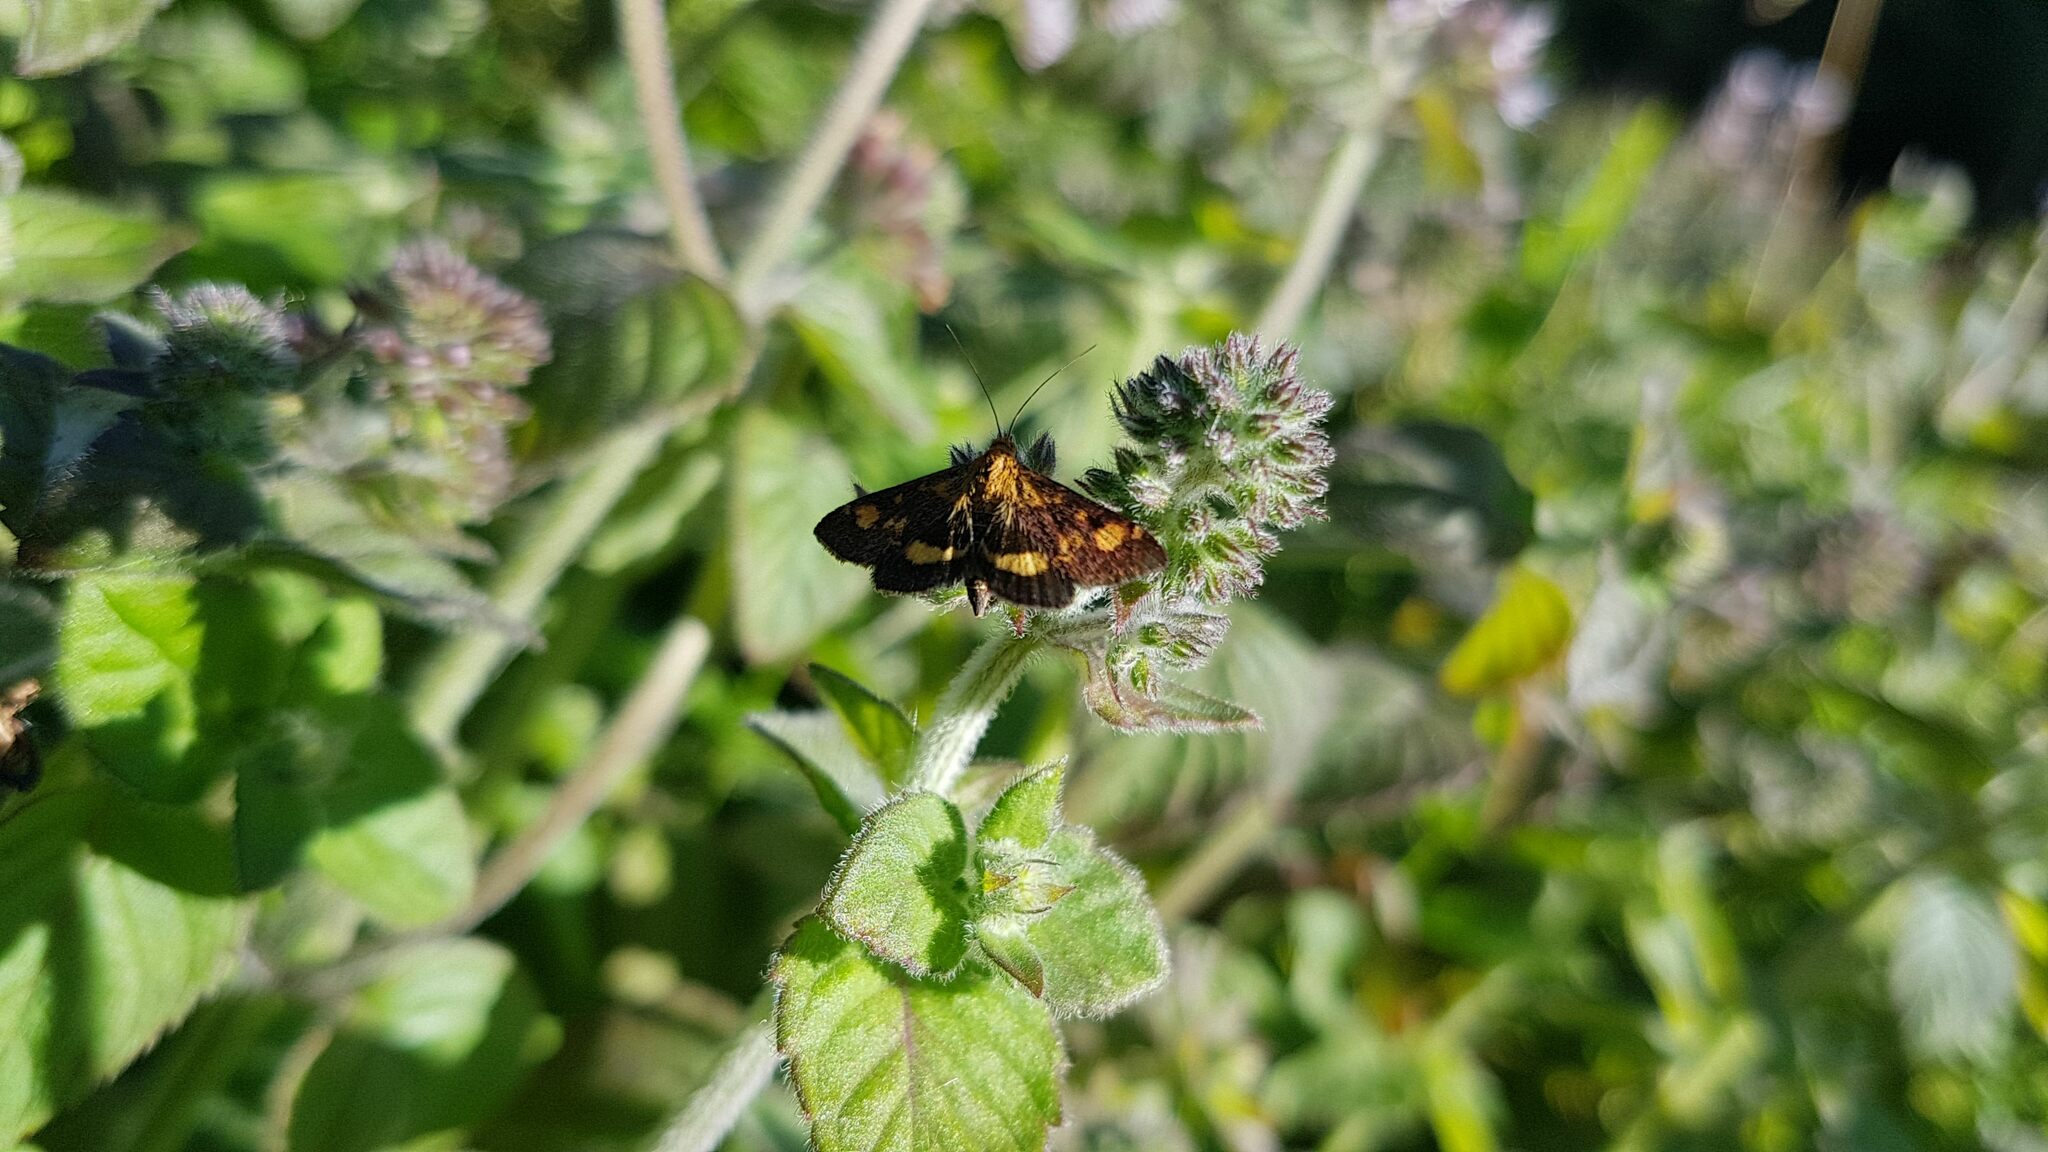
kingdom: Animalia
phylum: Arthropoda
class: Insecta
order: Lepidoptera
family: Crambidae
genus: Pyrausta
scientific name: Pyrausta aurata
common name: Small purple & gold
